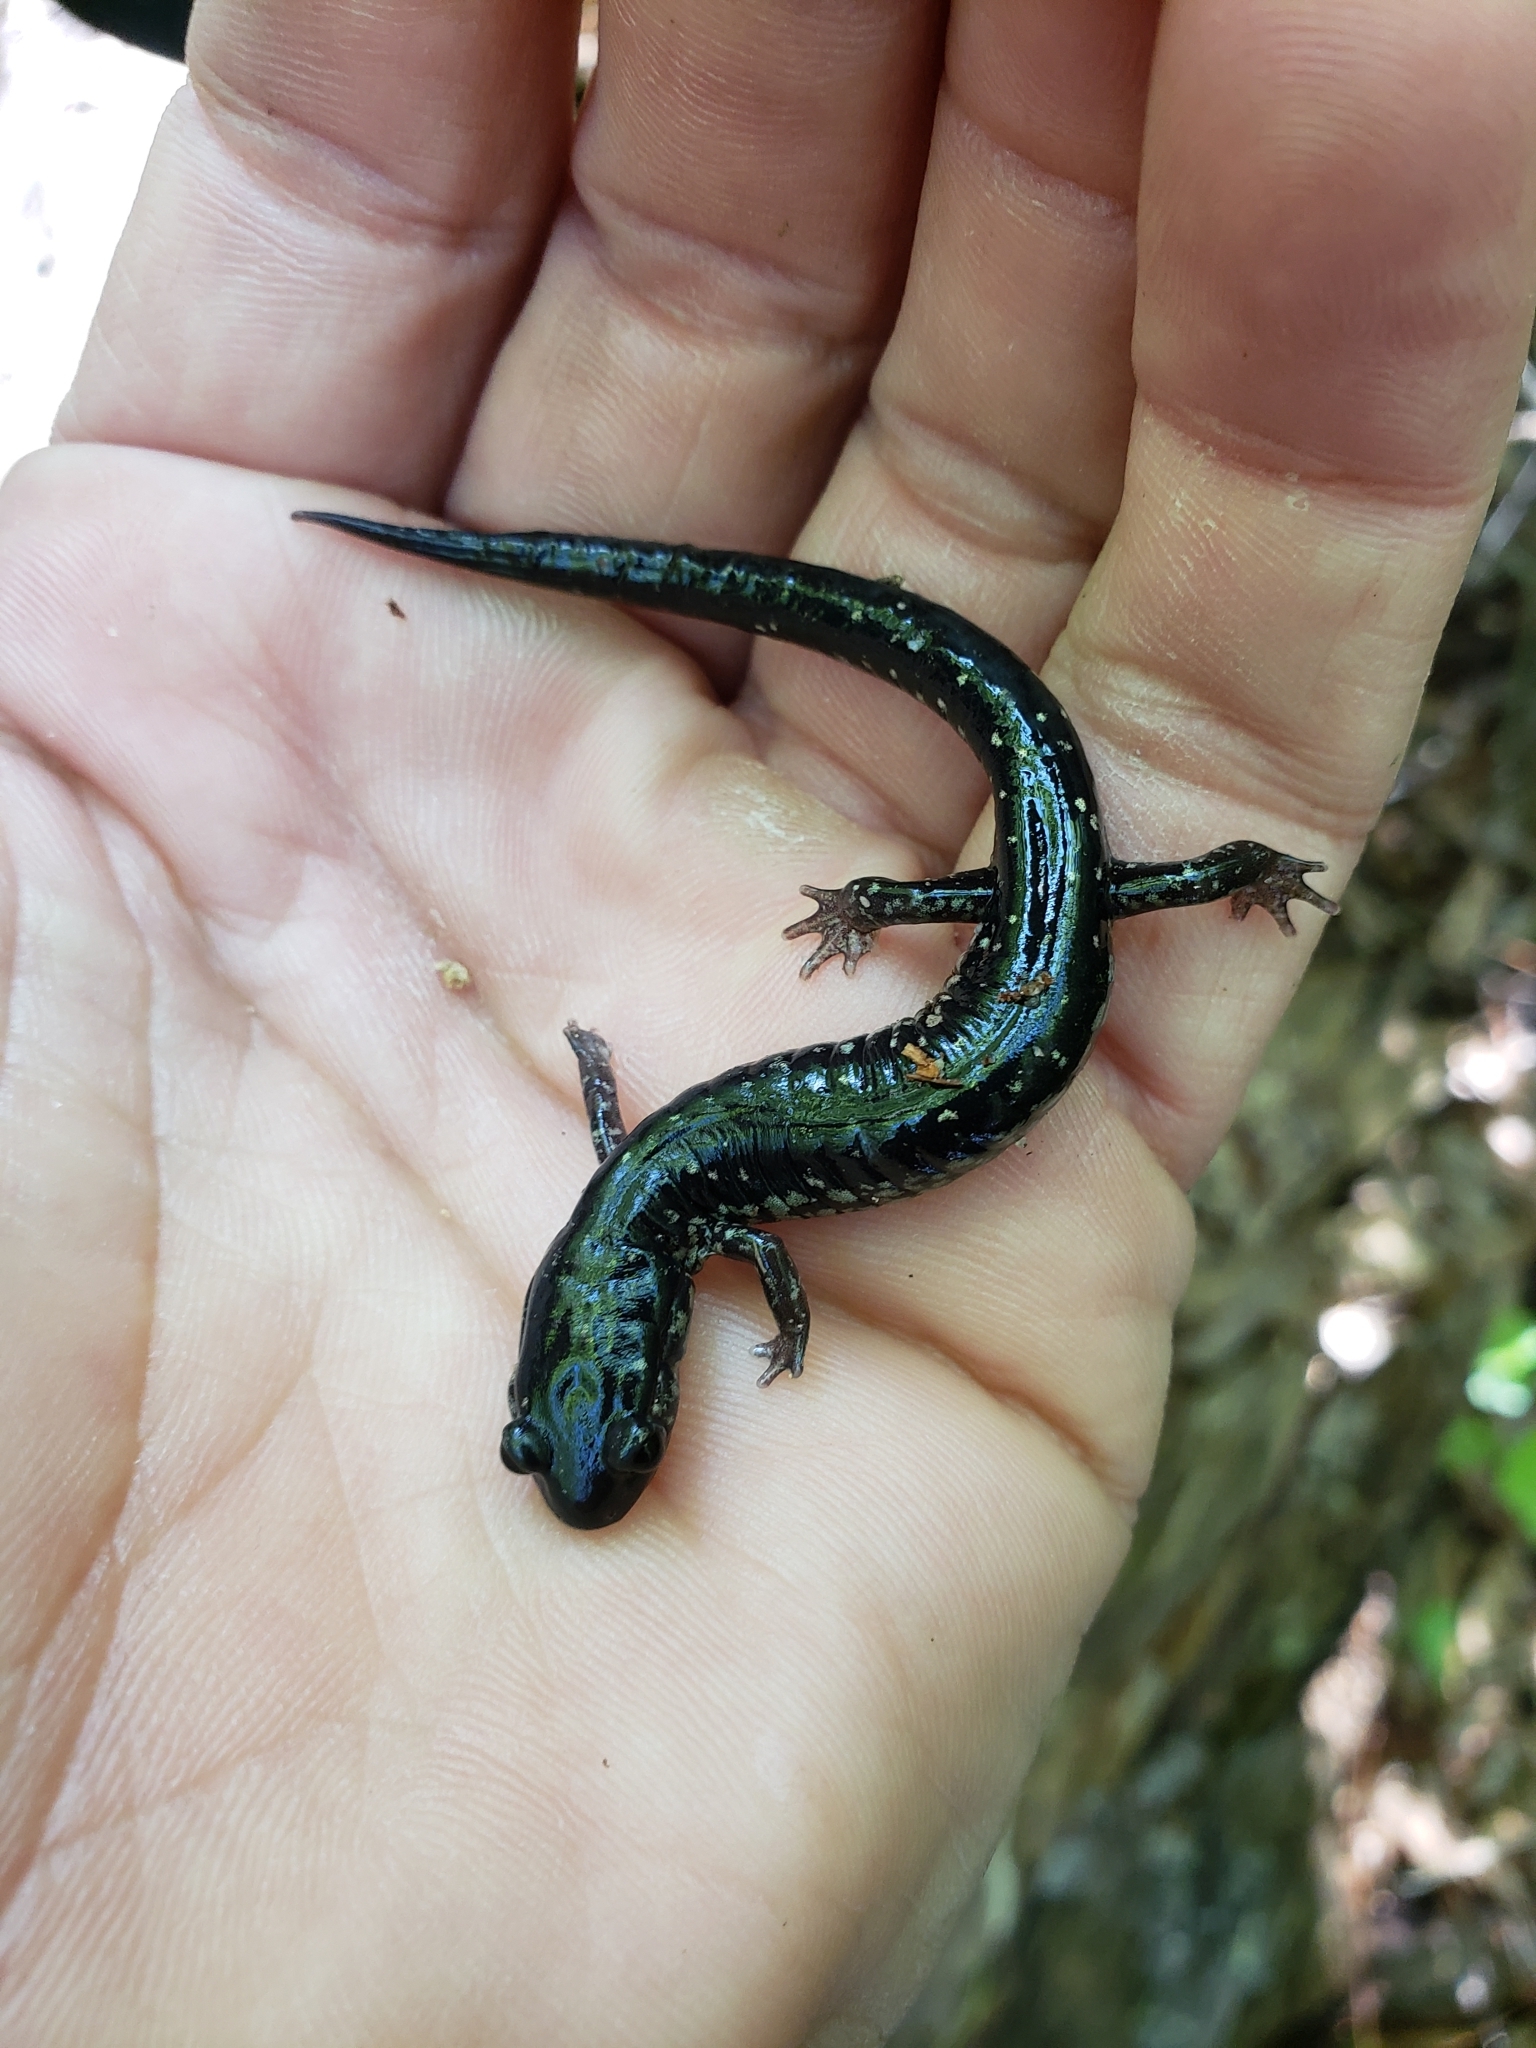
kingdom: Animalia
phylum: Chordata
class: Amphibia
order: Caudata
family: Plethodontidae
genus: Plethodon
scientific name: Plethodon mississippi
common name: Mississippi slimy salamander
